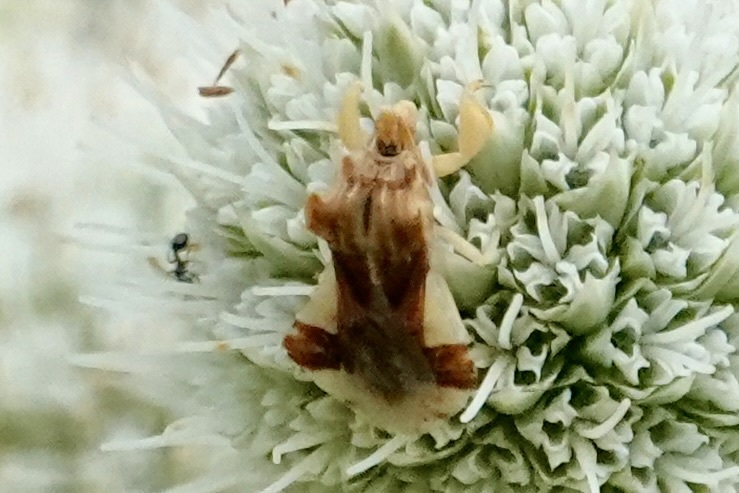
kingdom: Animalia
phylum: Arthropoda
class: Insecta
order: Hemiptera
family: Reduviidae
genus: Phymata
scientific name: Phymata fasciata
